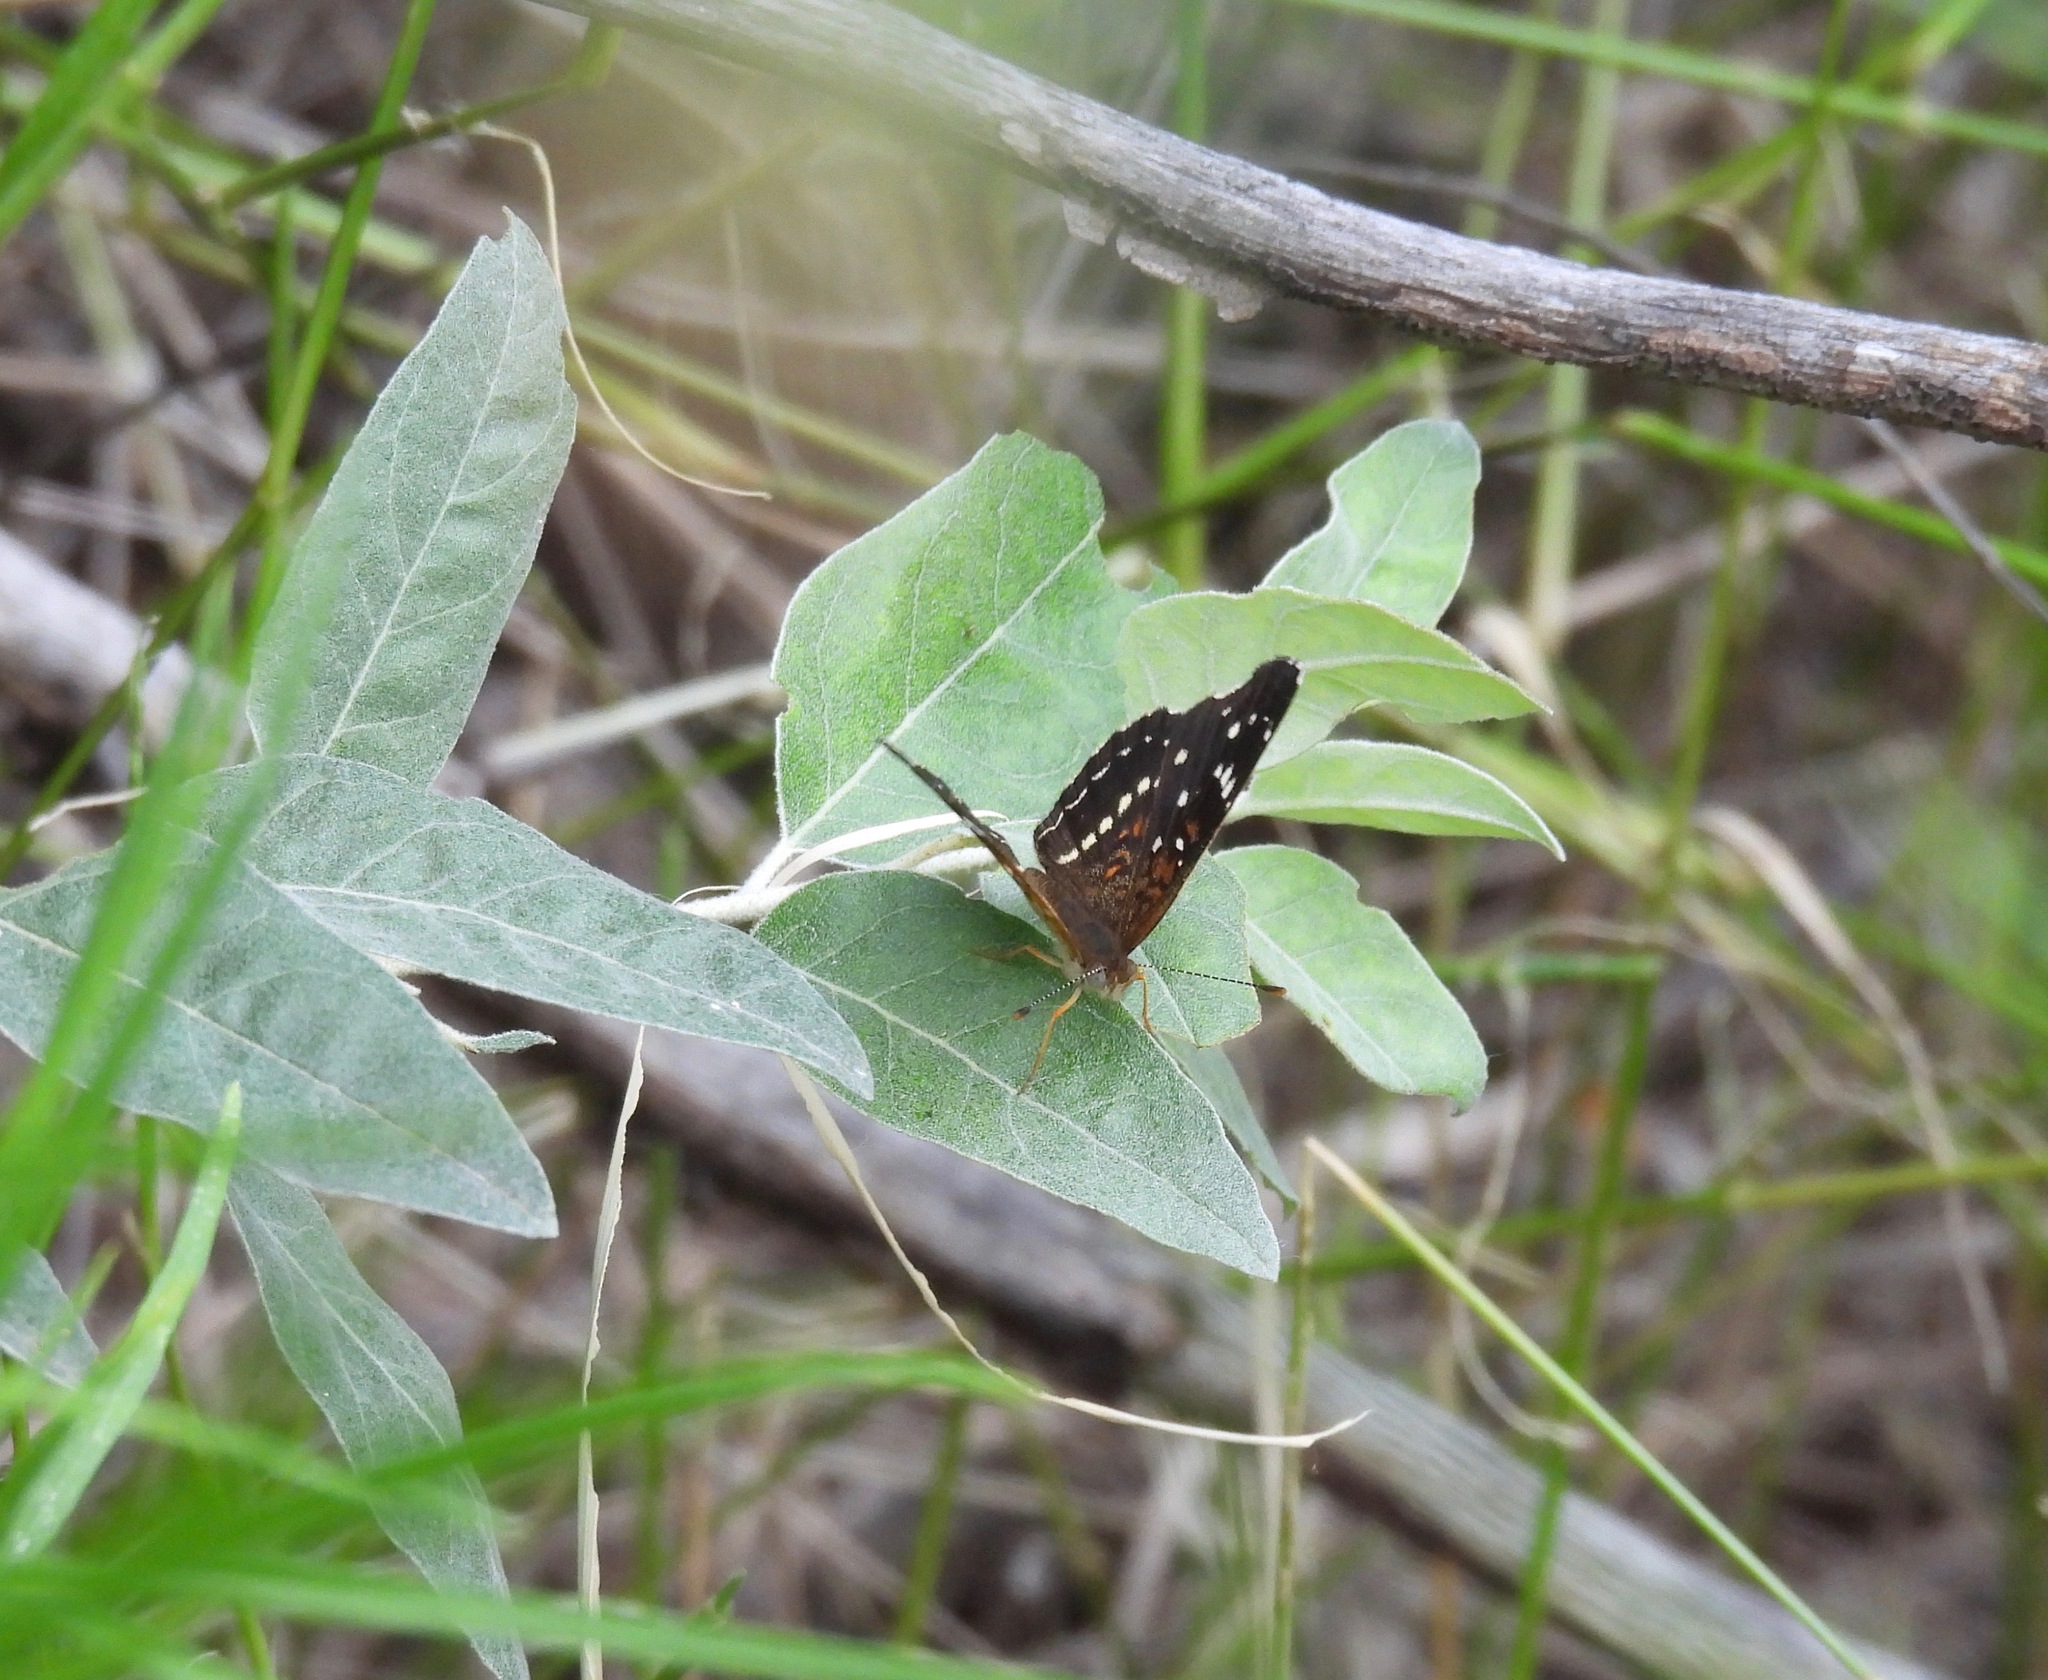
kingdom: Animalia
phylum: Arthropoda
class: Insecta
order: Lepidoptera
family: Nymphalidae
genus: Anthanassa
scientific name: Anthanassa texana
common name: Texan crescent
